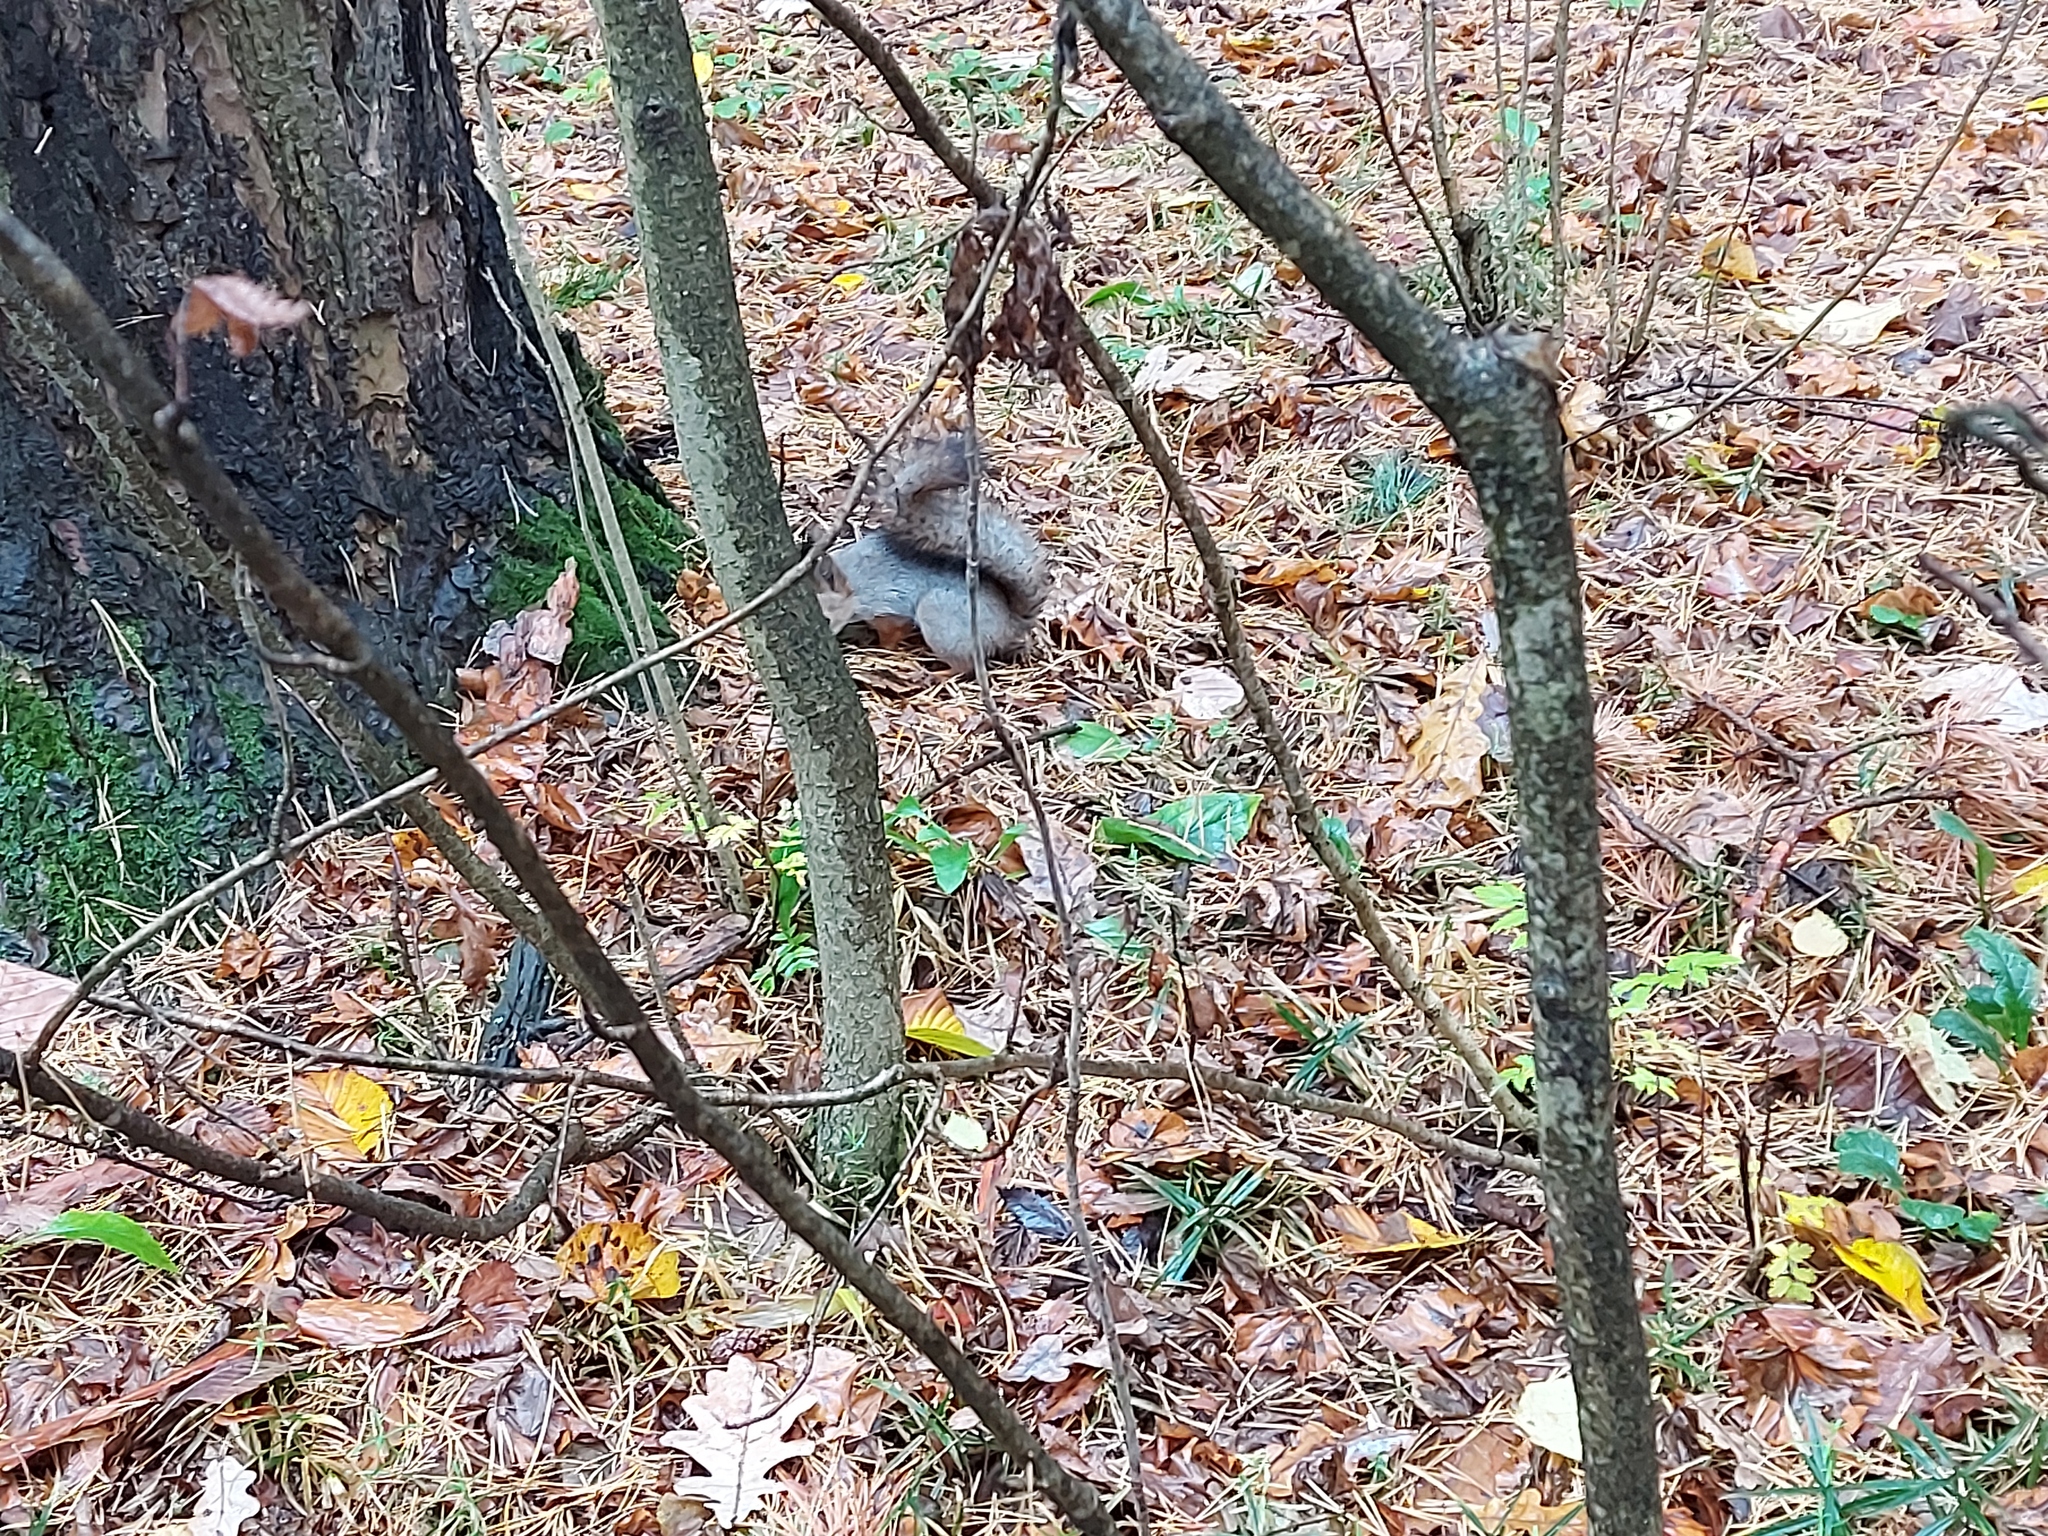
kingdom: Animalia
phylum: Chordata
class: Mammalia
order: Rodentia
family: Sciuridae
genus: Sciurus
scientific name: Sciurus vulgaris
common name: Eurasian red squirrel
